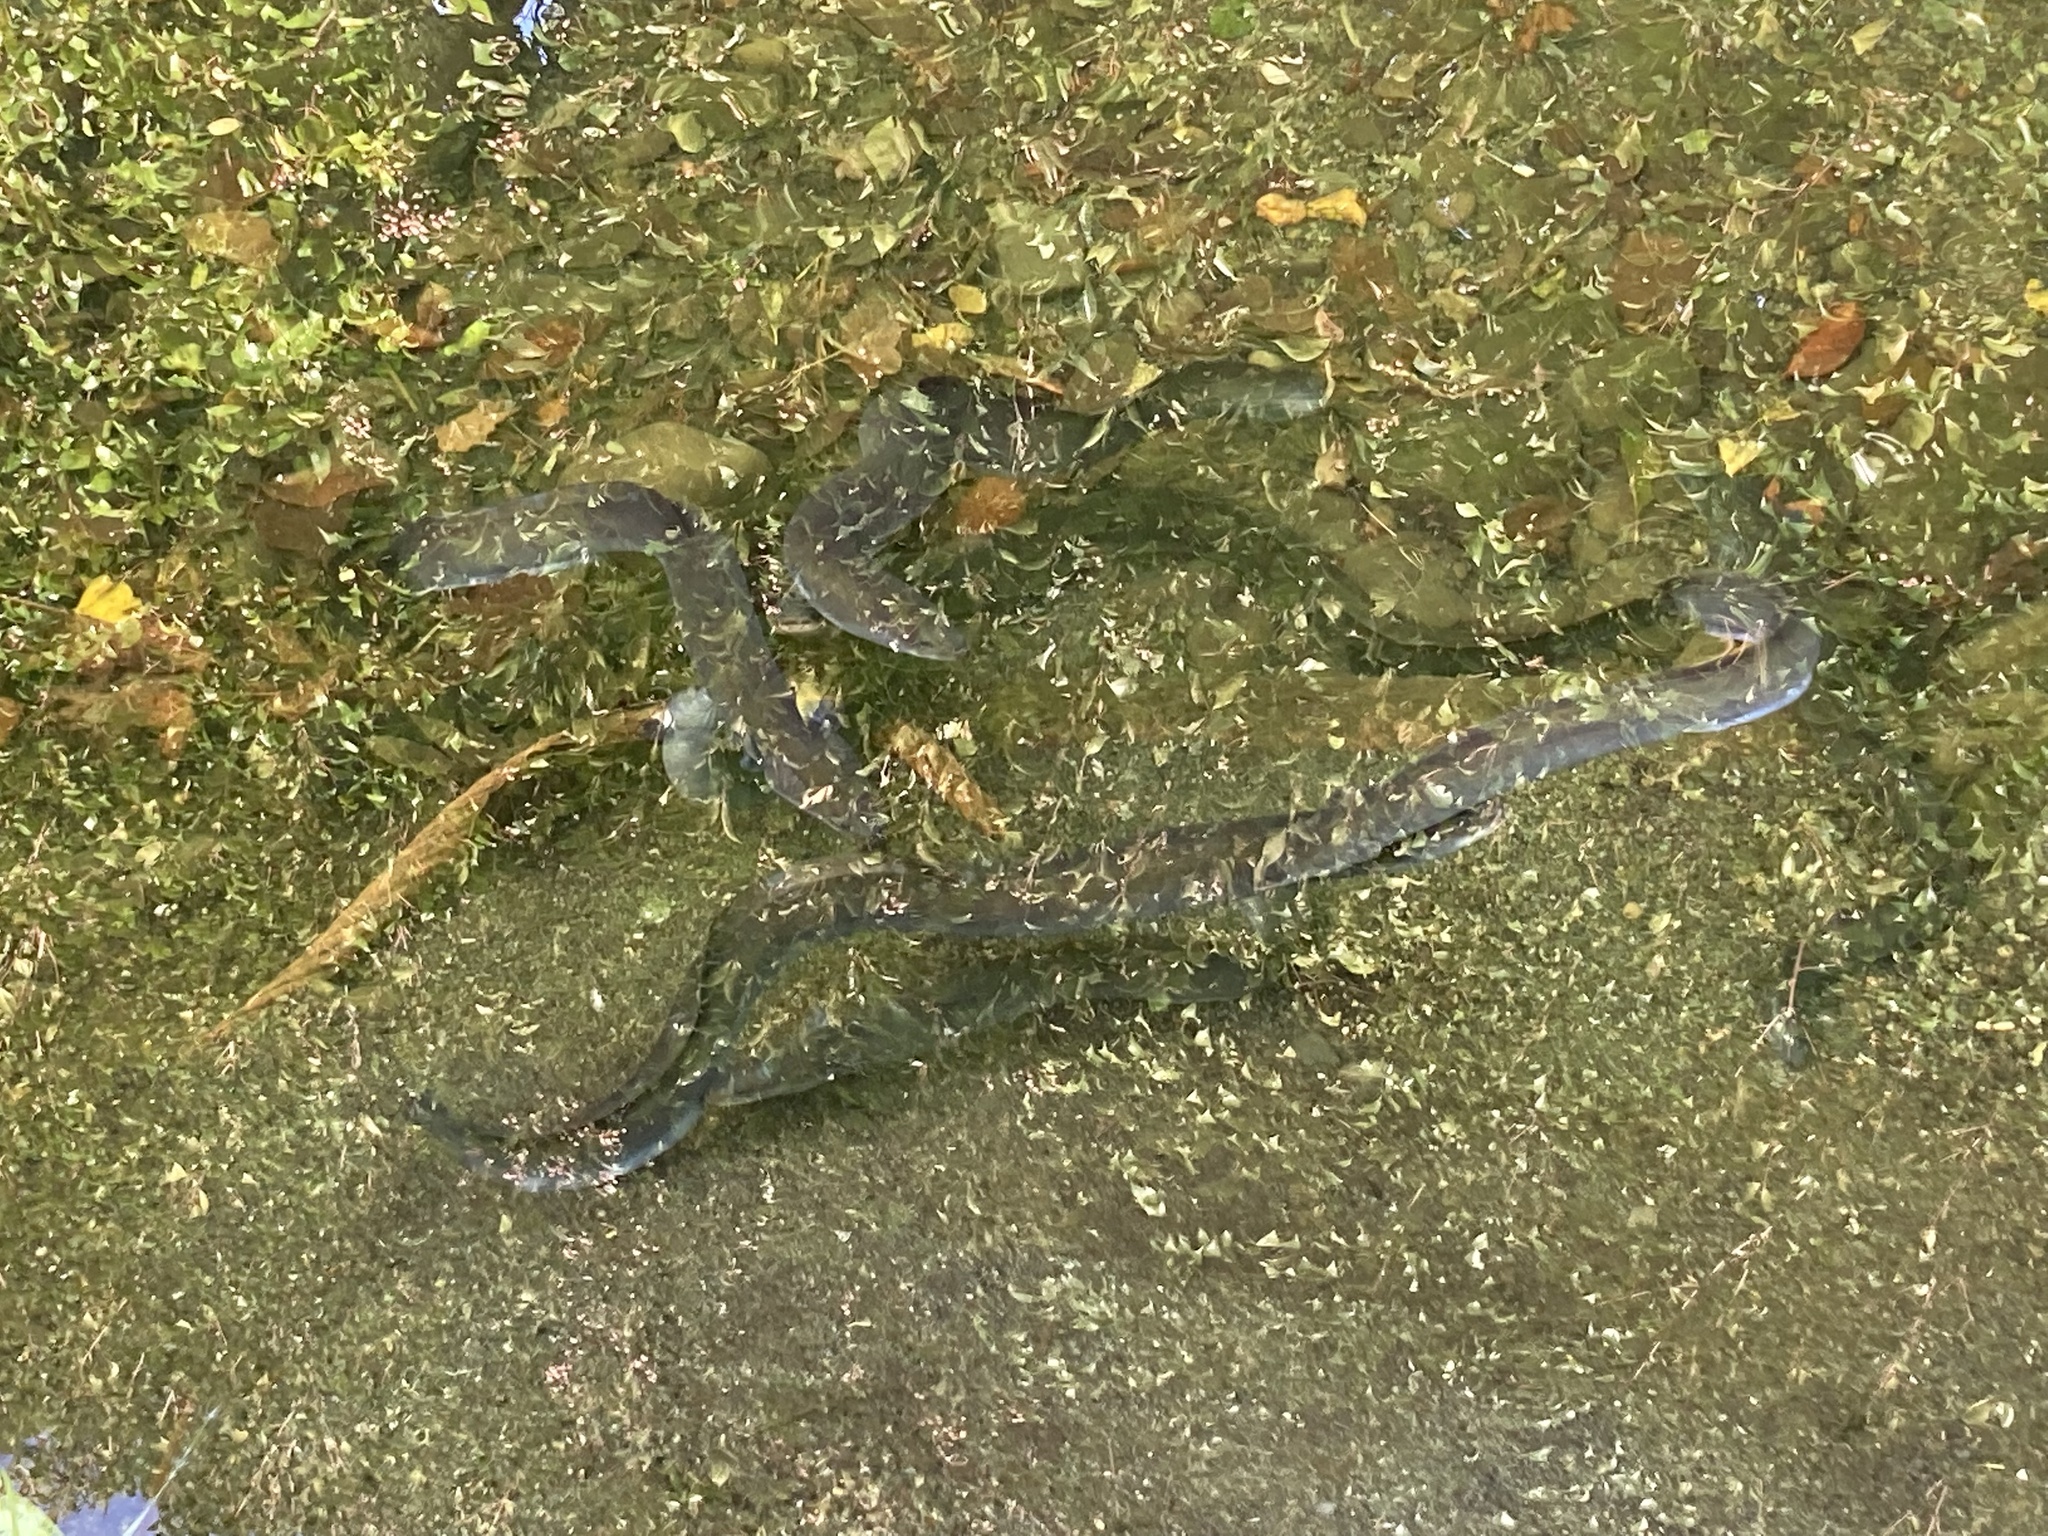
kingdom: Animalia
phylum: Chordata
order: Anguilliformes
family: Anguillidae
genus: Anguilla
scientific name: Anguilla australis
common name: Shortfin eel
